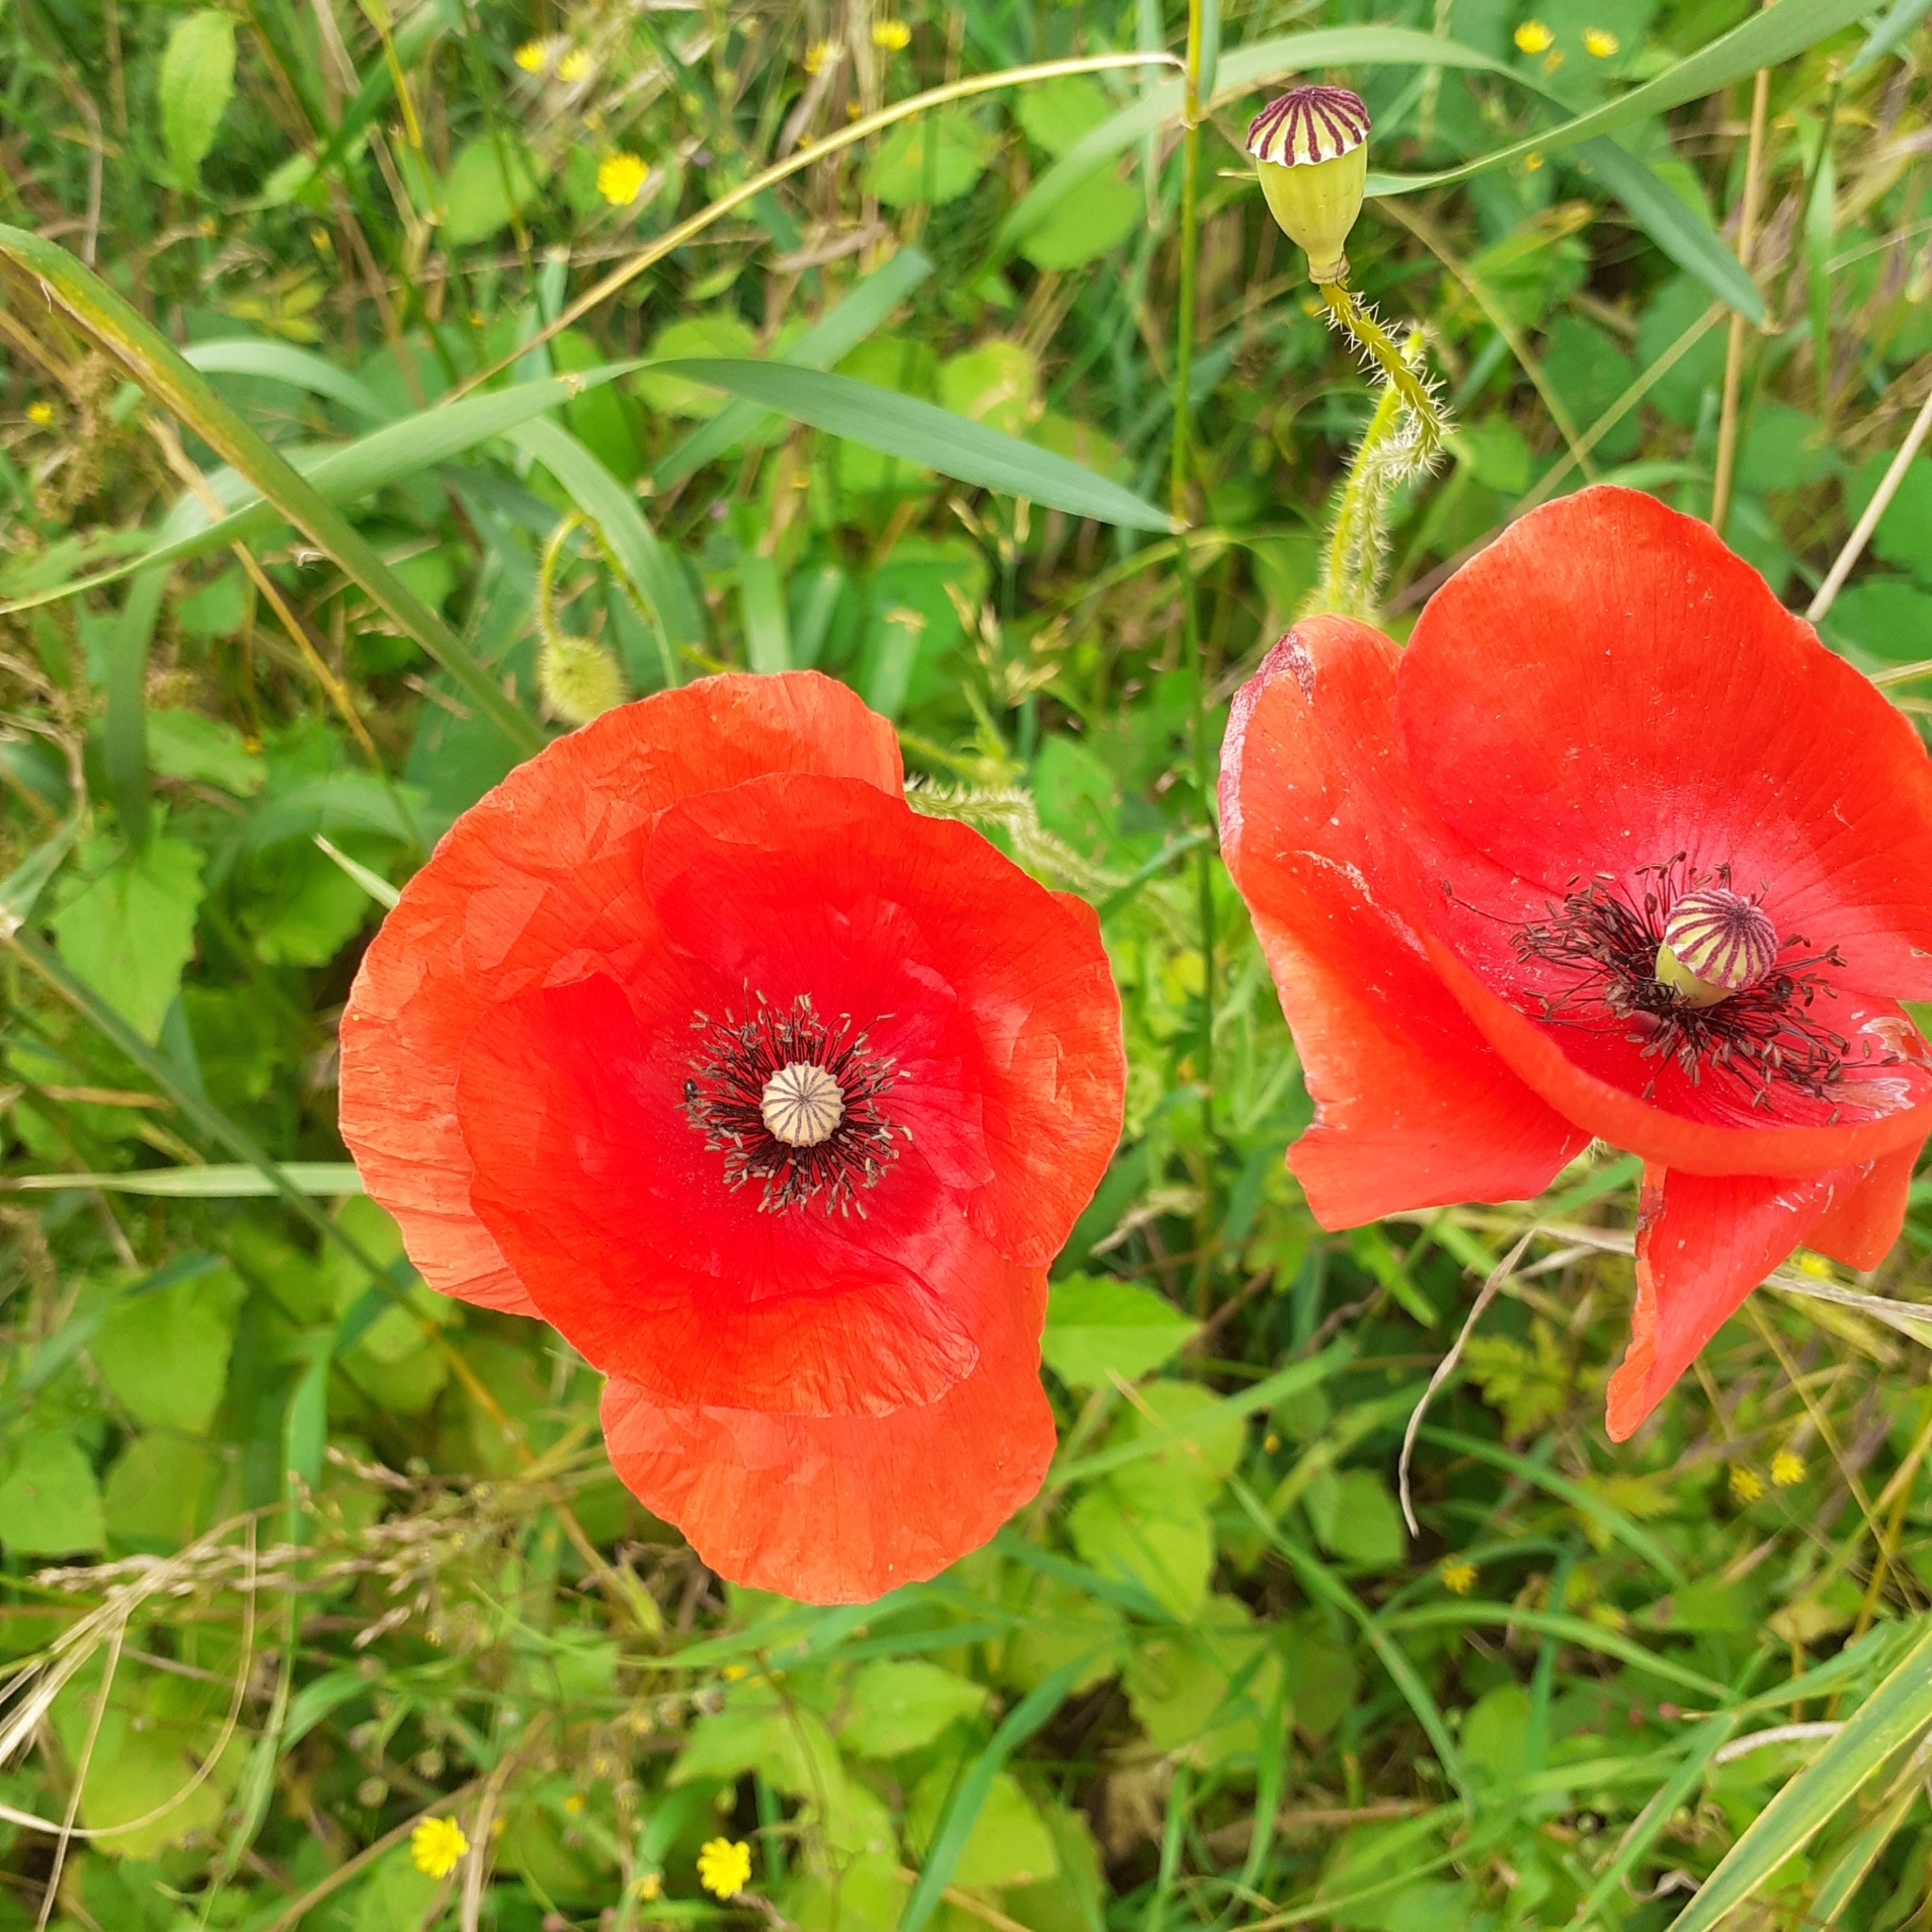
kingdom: Plantae
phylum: Tracheophyta
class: Magnoliopsida
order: Ranunculales
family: Papaveraceae
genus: Papaver
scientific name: Papaver rhoeas
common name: Corn poppy
